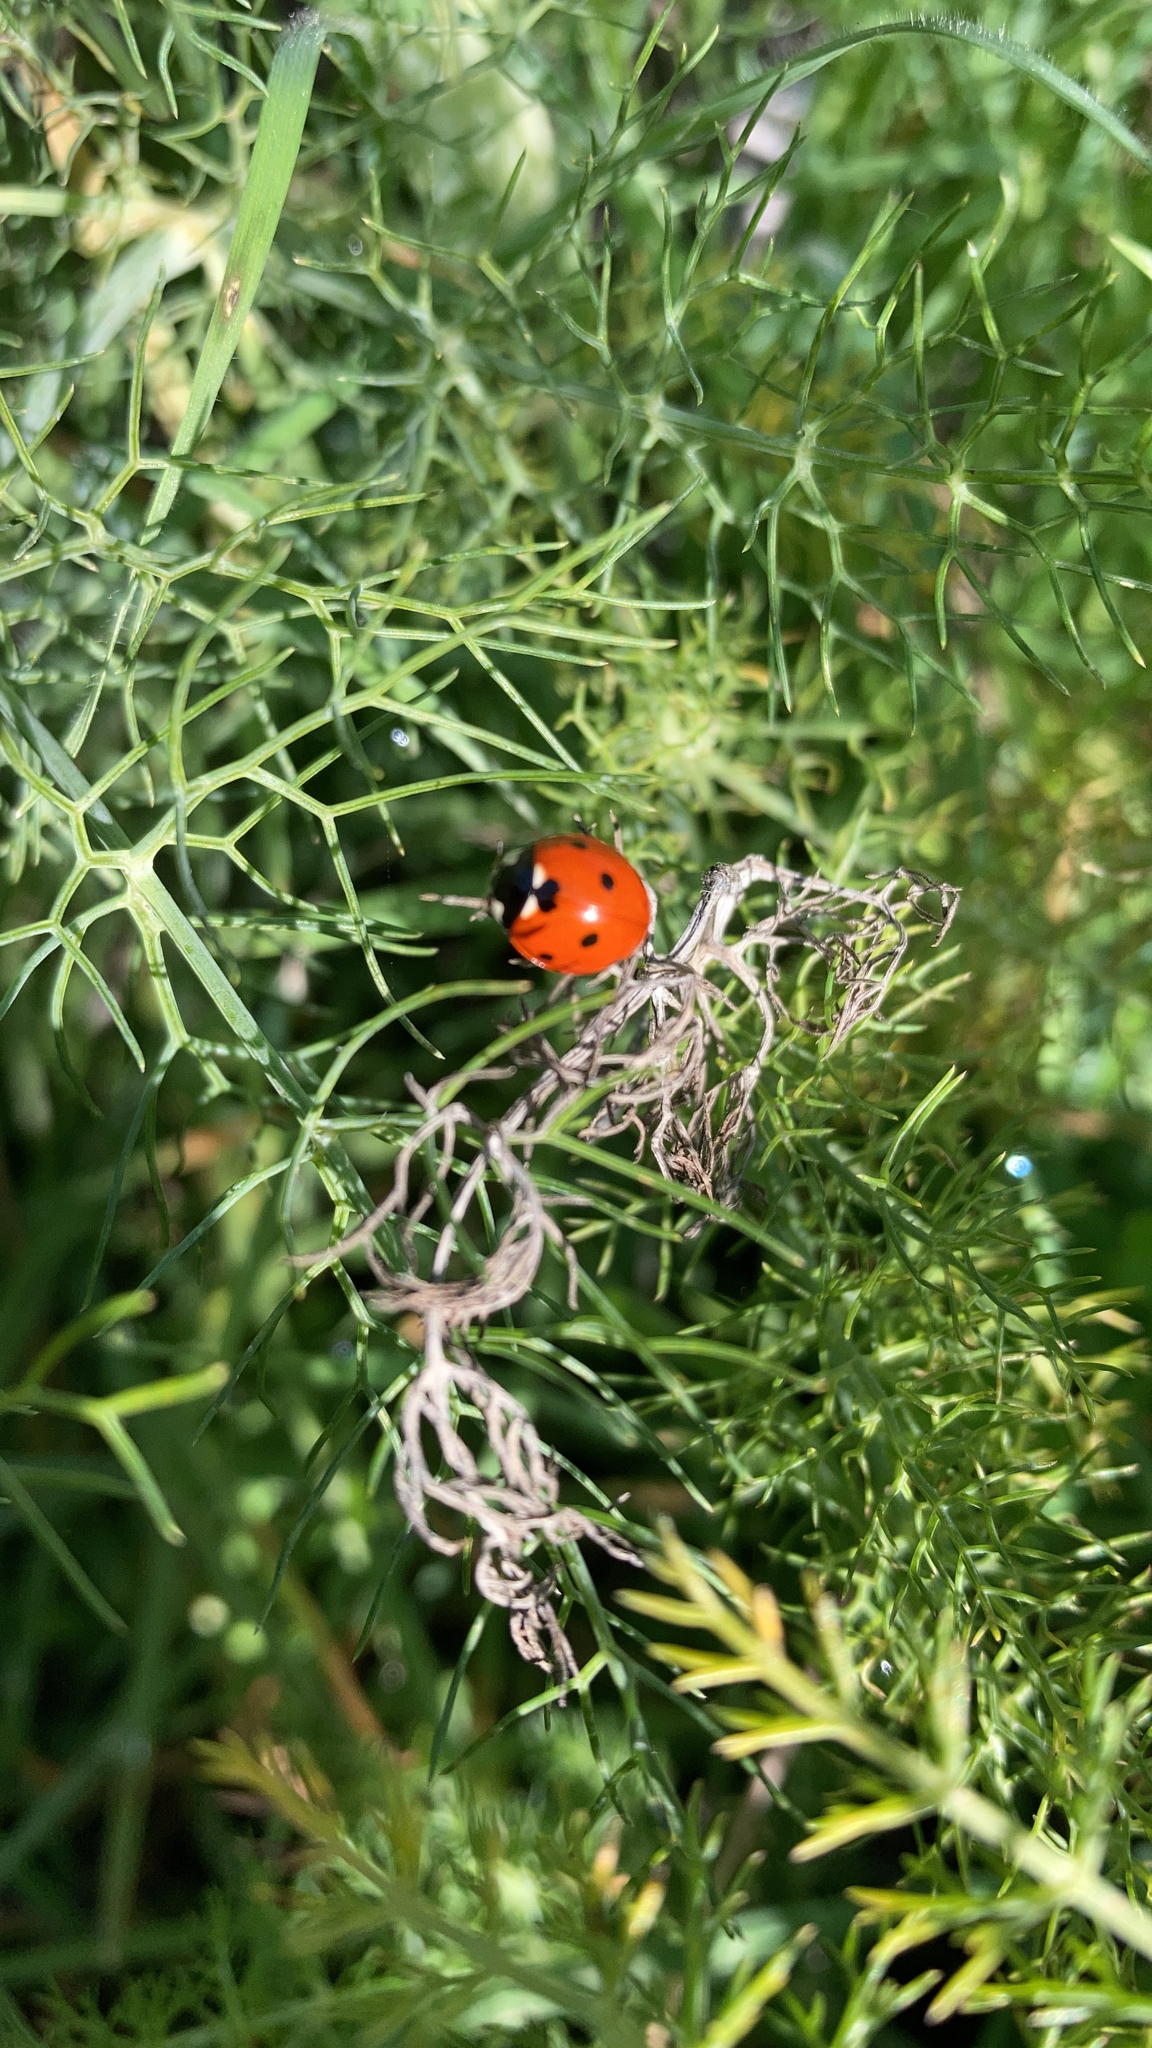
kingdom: Animalia
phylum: Arthropoda
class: Insecta
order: Coleoptera
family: Coccinellidae
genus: Coccinella
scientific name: Coccinella septempunctata
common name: Sevenspotted lady beetle
